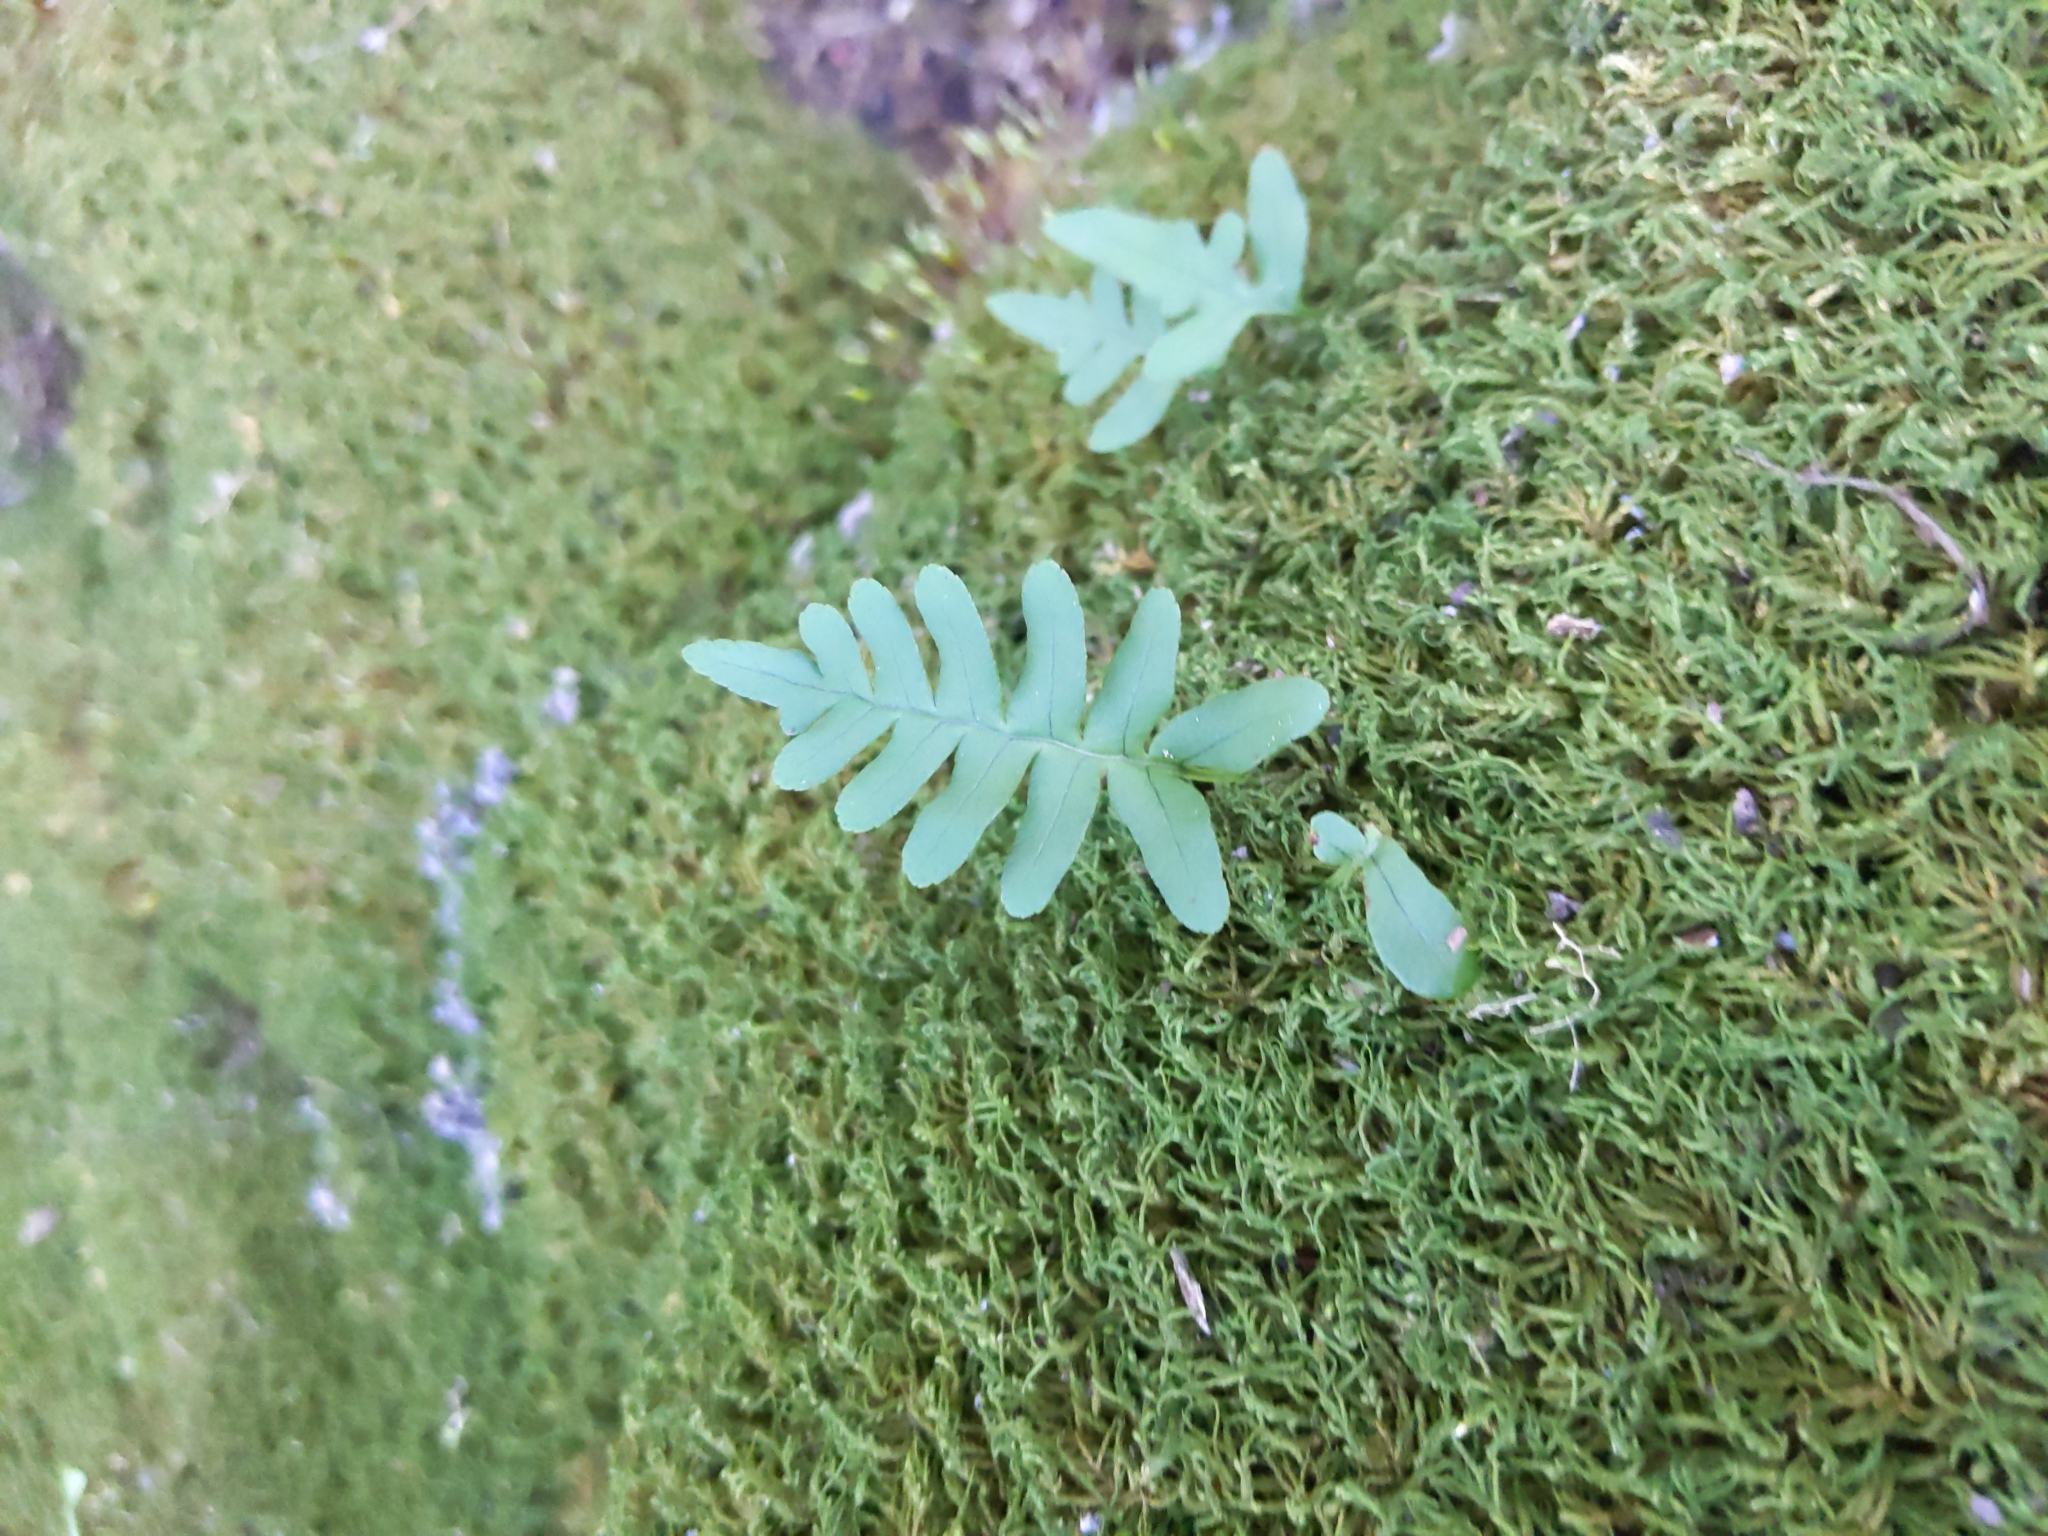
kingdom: Plantae
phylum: Tracheophyta
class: Polypodiopsida
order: Polypodiales
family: Polypodiaceae
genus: Polypodium
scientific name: Polypodium virginianum
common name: American wall fern
